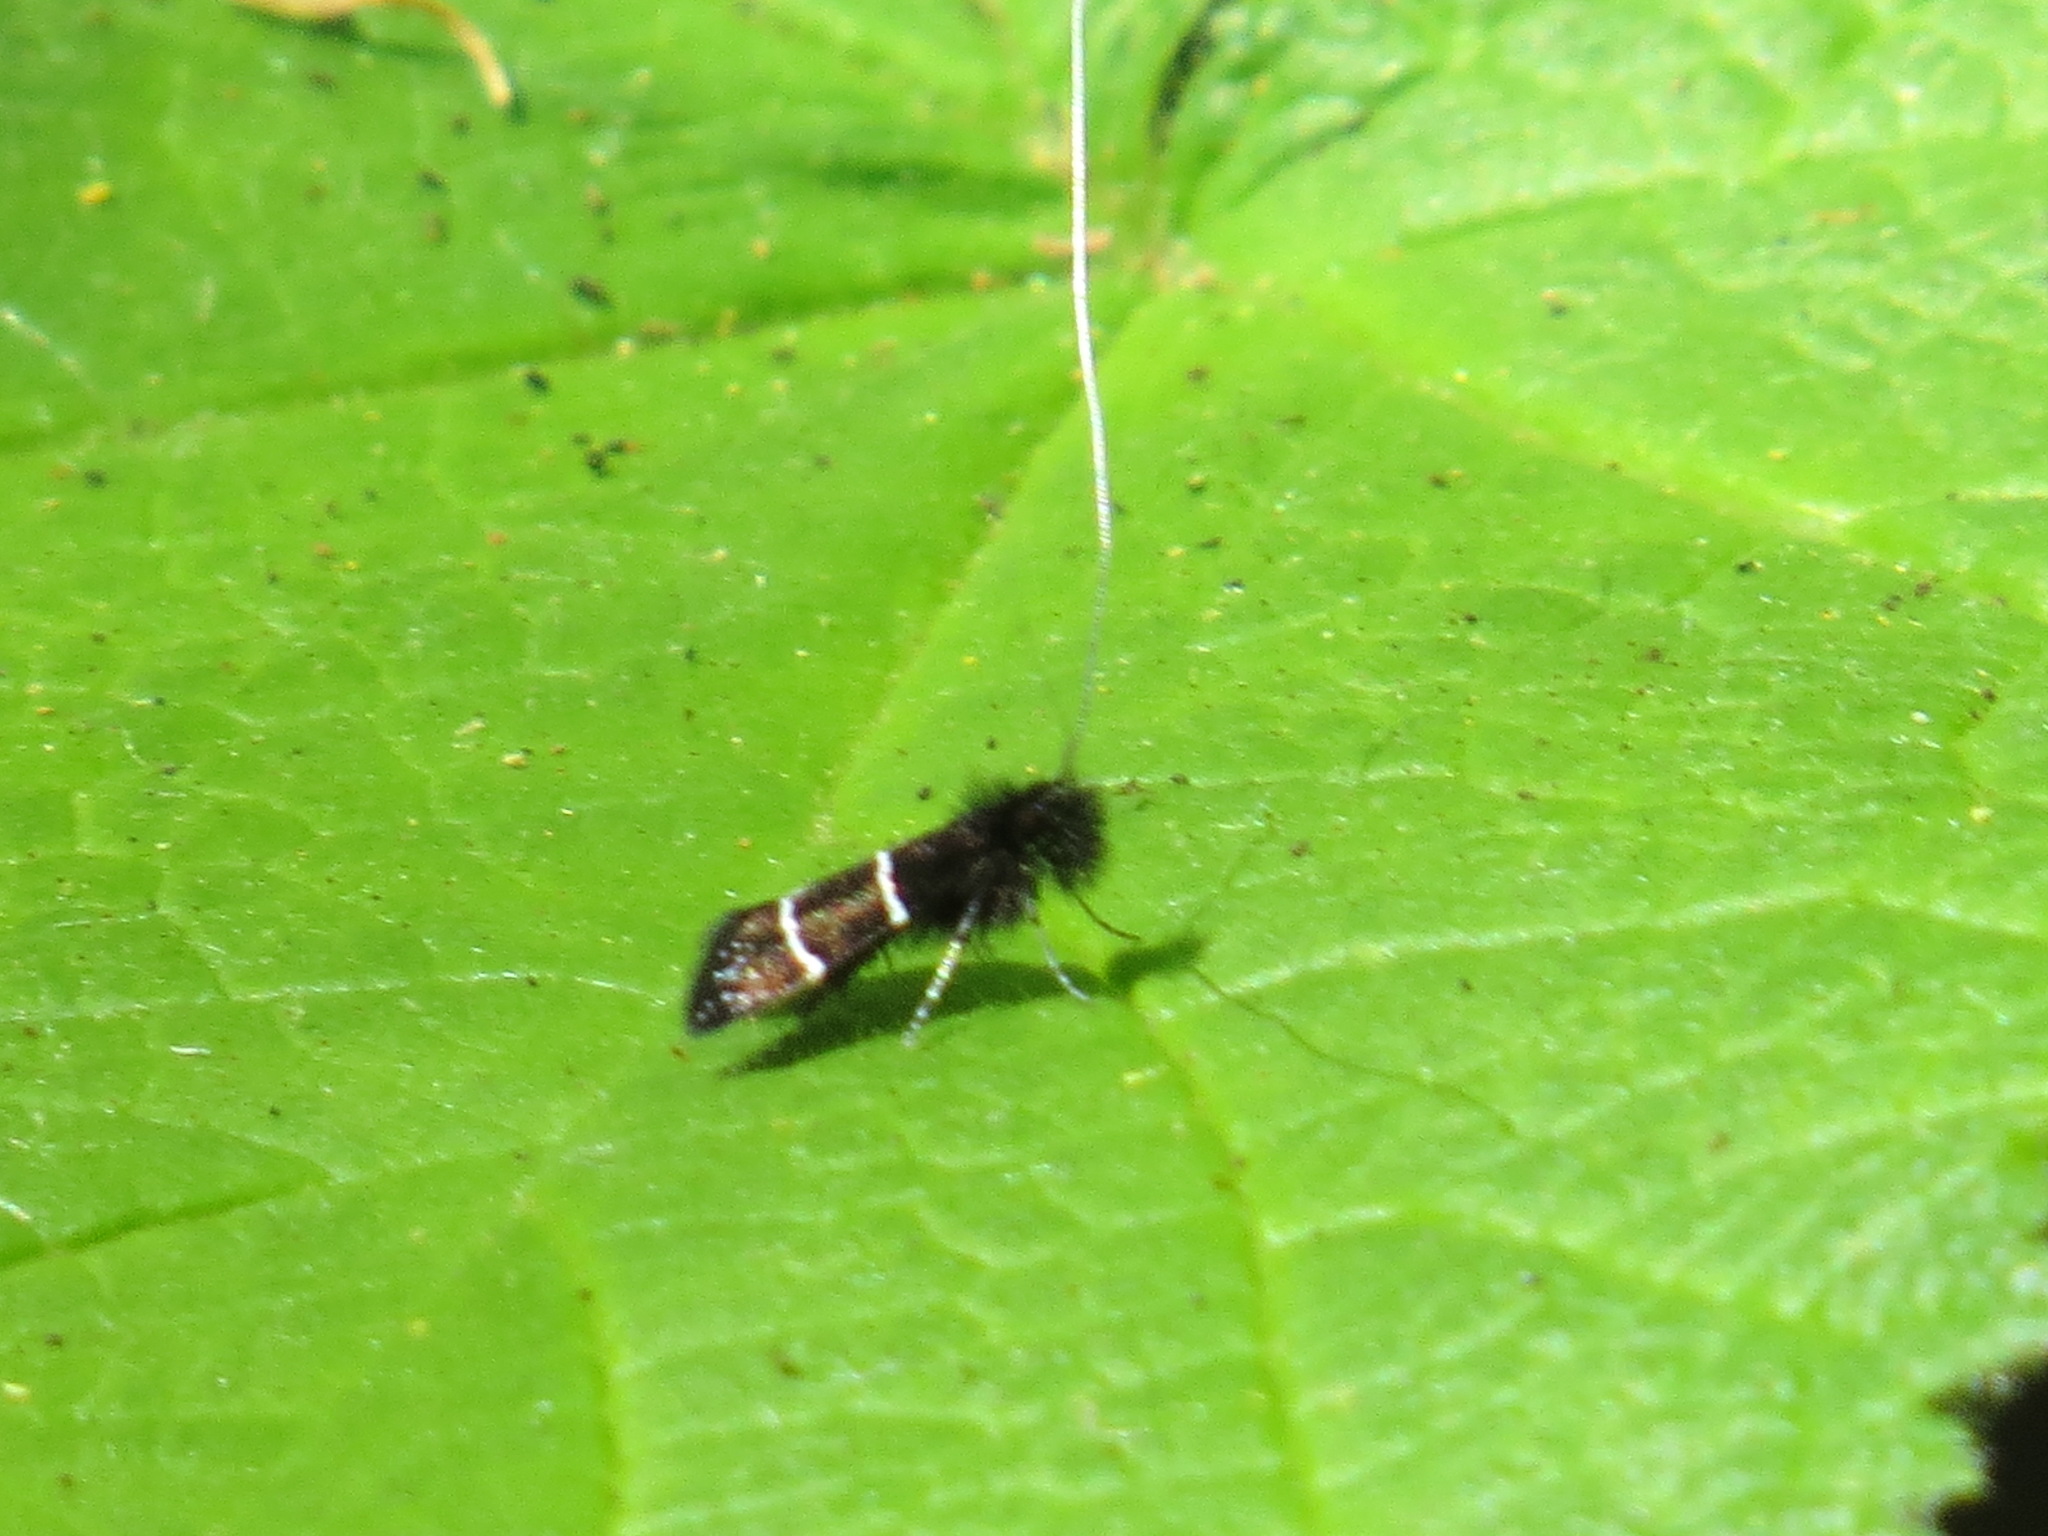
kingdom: Animalia
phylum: Arthropoda
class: Insecta
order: Lepidoptera
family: Adelidae
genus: Adela
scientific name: Adela septentrionella
